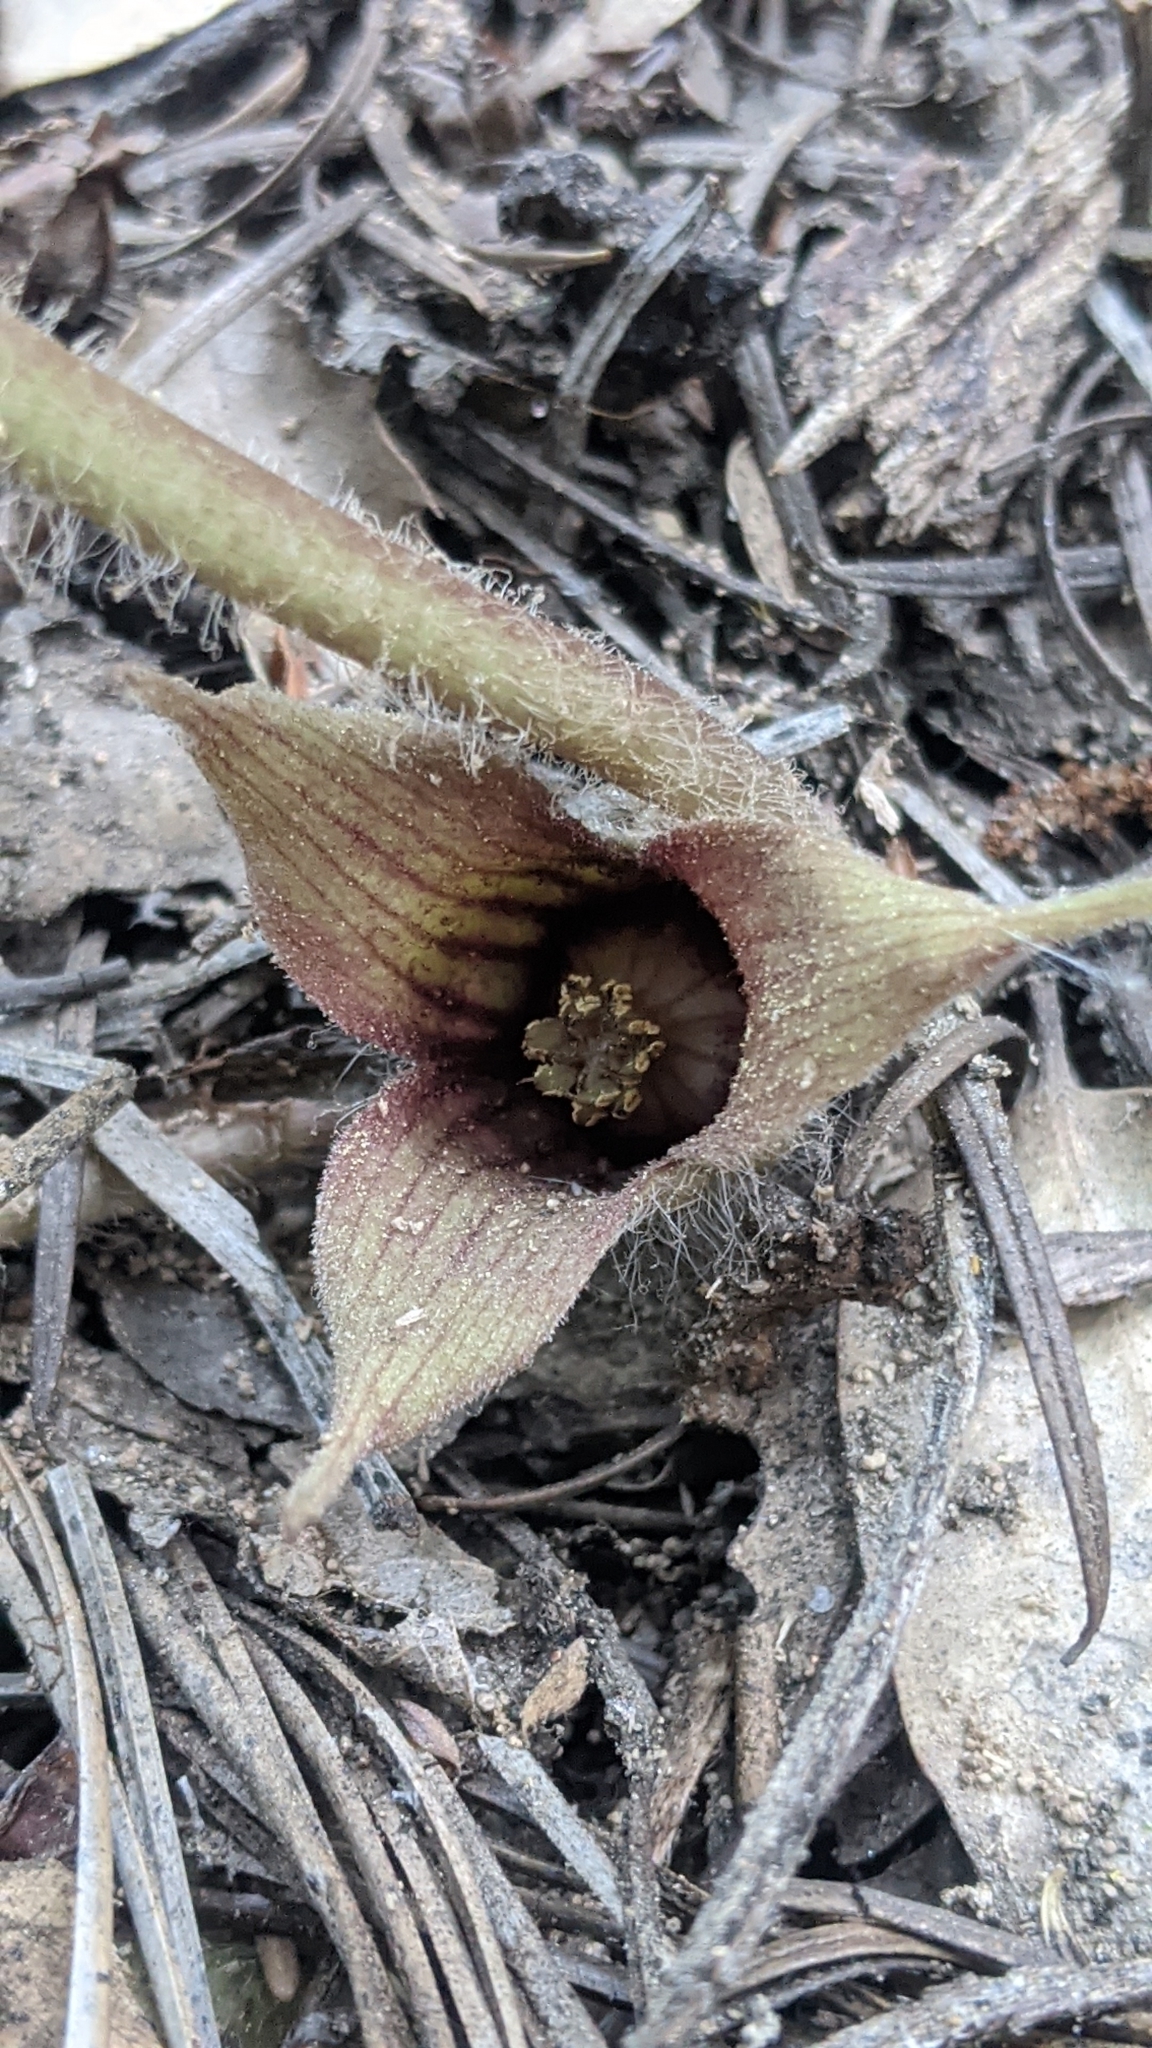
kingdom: Plantae
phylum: Tracheophyta
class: Magnoliopsida
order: Piperales
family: Aristolochiaceae
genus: Asarum
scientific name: Asarum hartwegii
